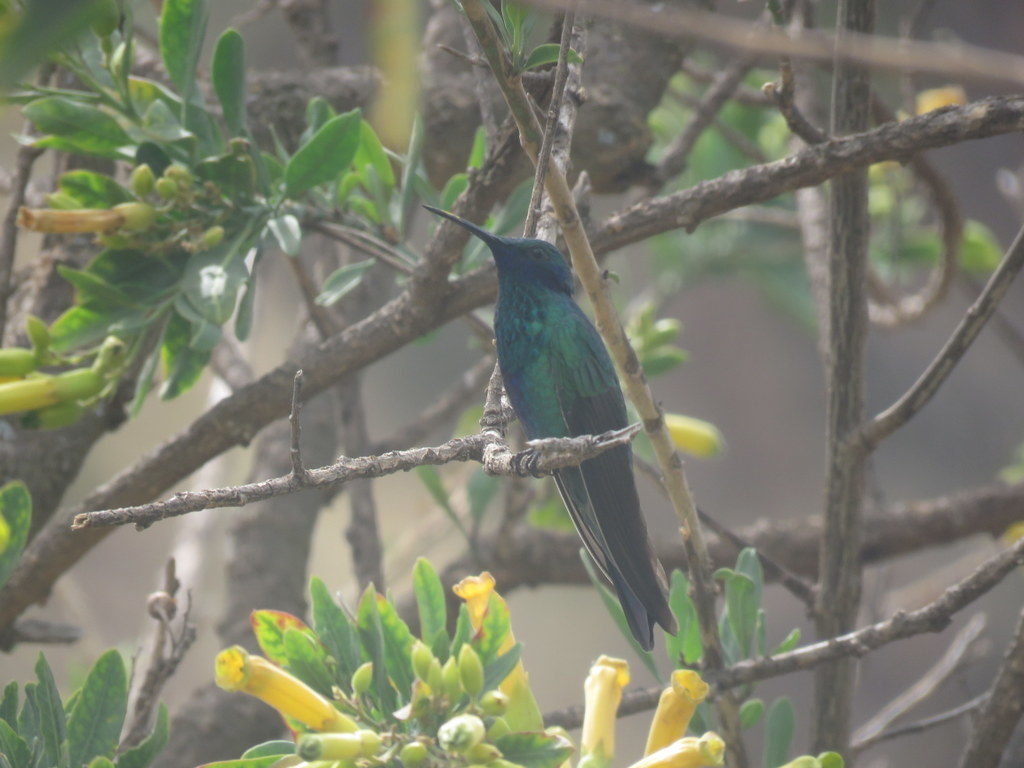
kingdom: Animalia
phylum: Chordata
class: Aves
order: Apodiformes
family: Trochilidae
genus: Colibri
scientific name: Colibri coruscans
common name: Sparkling violetear
